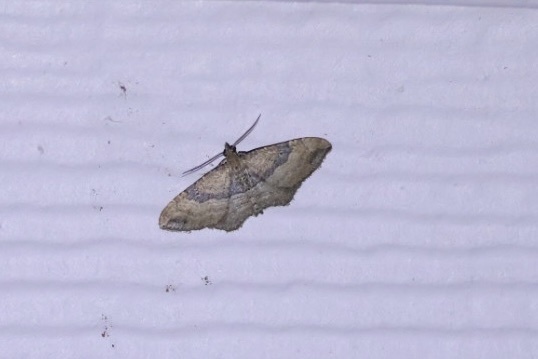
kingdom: Animalia
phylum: Arthropoda
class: Insecta
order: Lepidoptera
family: Geometridae
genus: Orthonama
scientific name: Orthonama obstipata
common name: The gem
